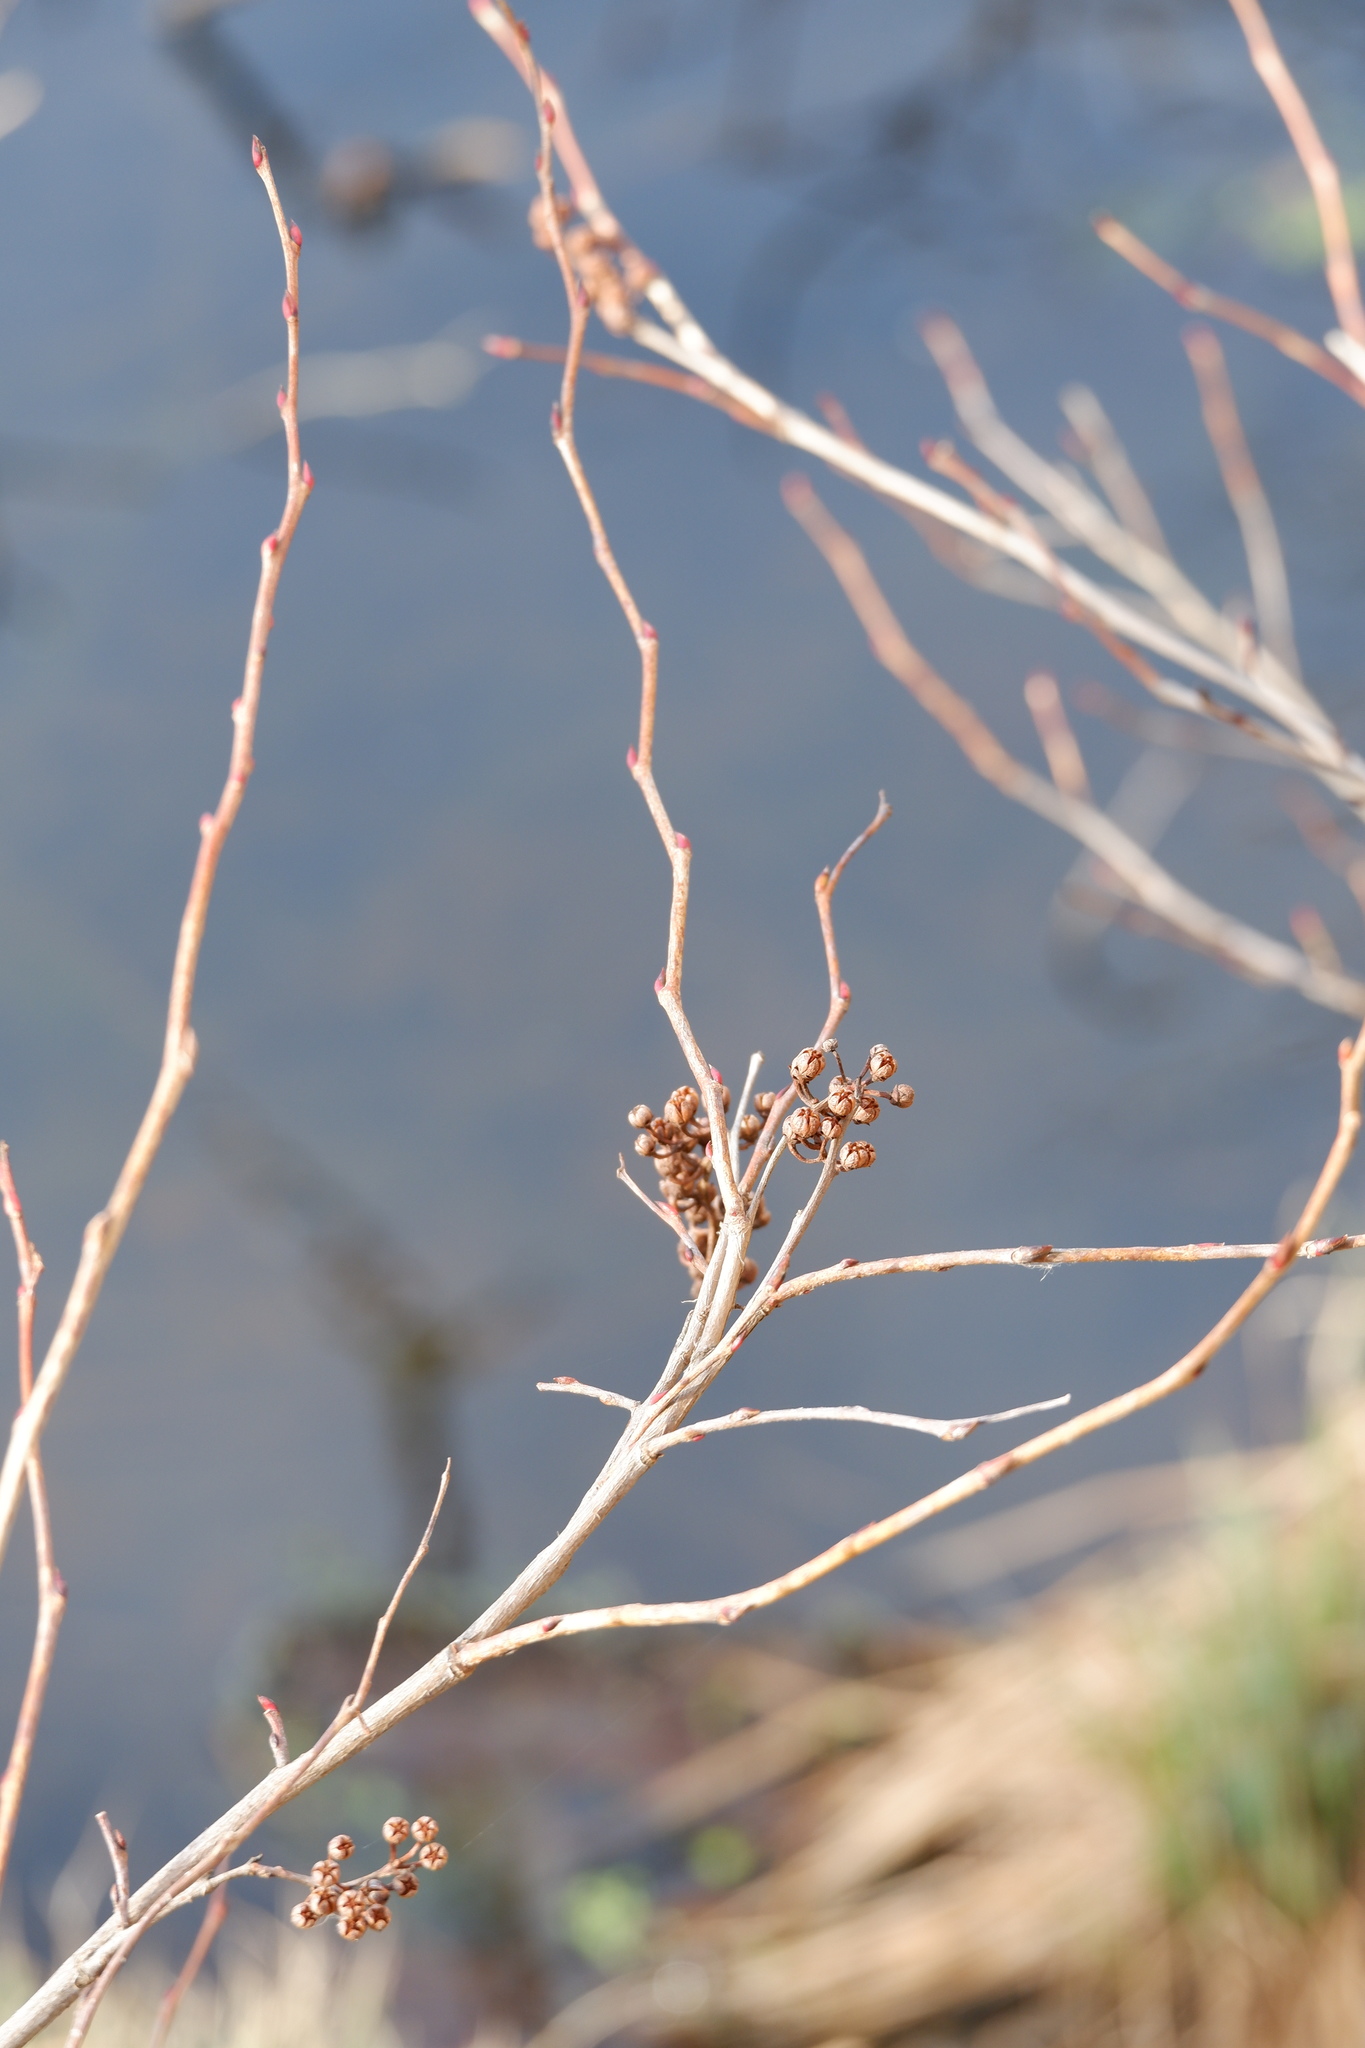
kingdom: Plantae
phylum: Tracheophyta
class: Magnoliopsida
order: Ericales
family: Ericaceae
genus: Lyonia
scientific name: Lyonia ligustrina
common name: Maleberry
